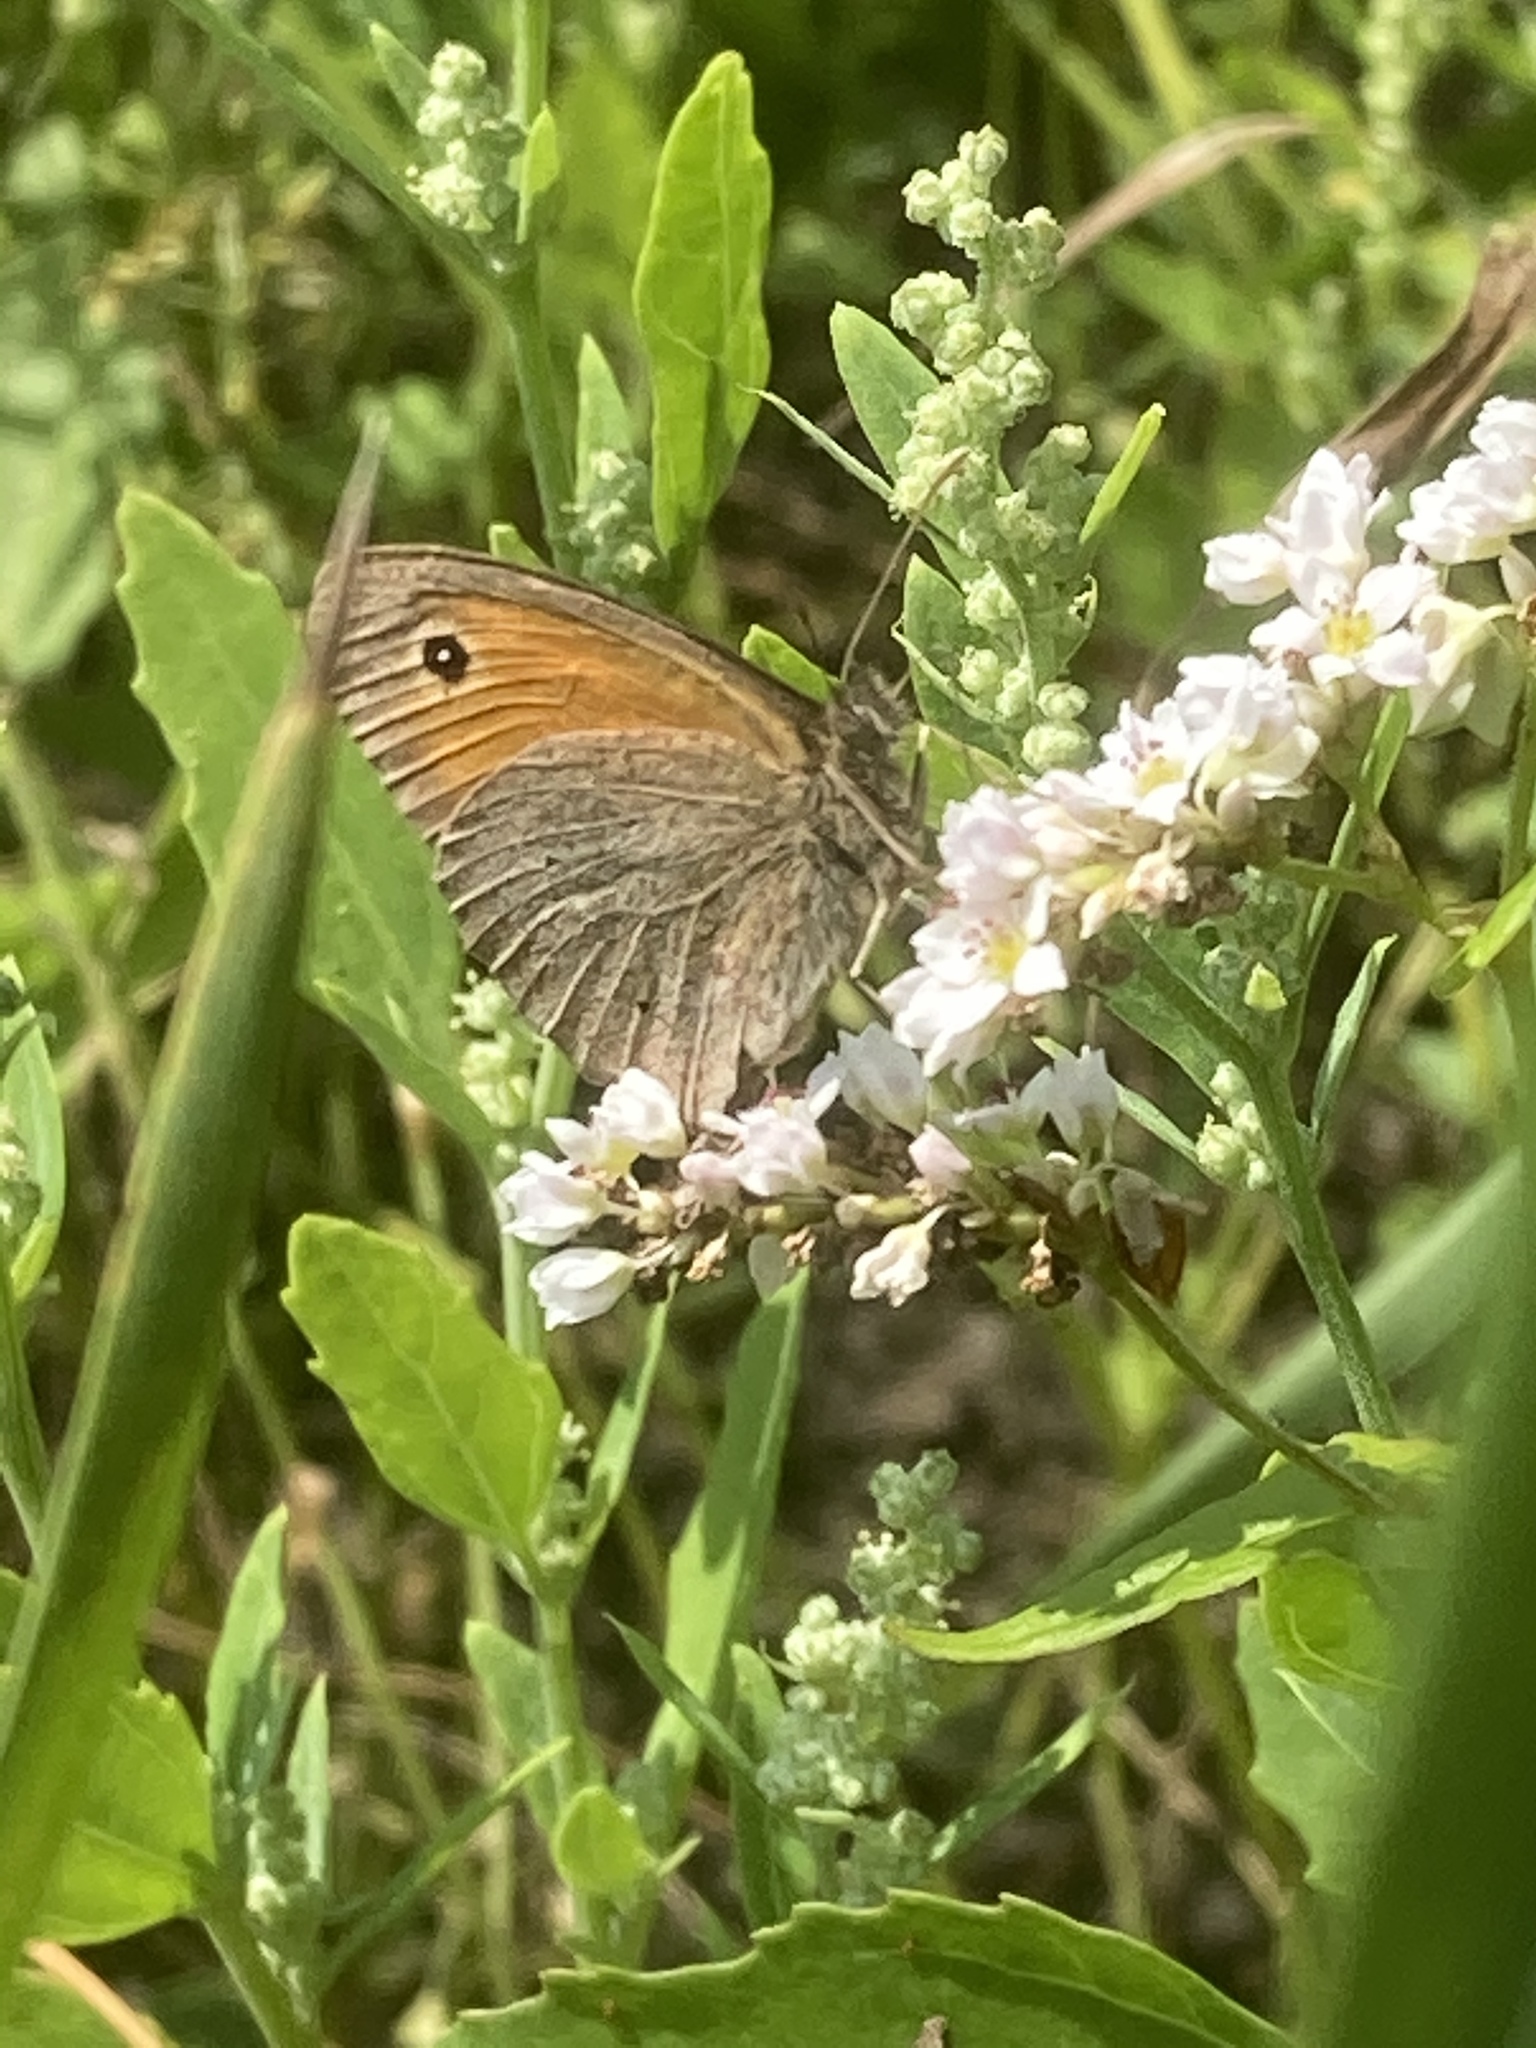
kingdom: Animalia
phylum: Arthropoda
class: Insecta
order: Lepidoptera
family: Nymphalidae
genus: Maniola
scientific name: Maniola jurtina
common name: Meadow brown
